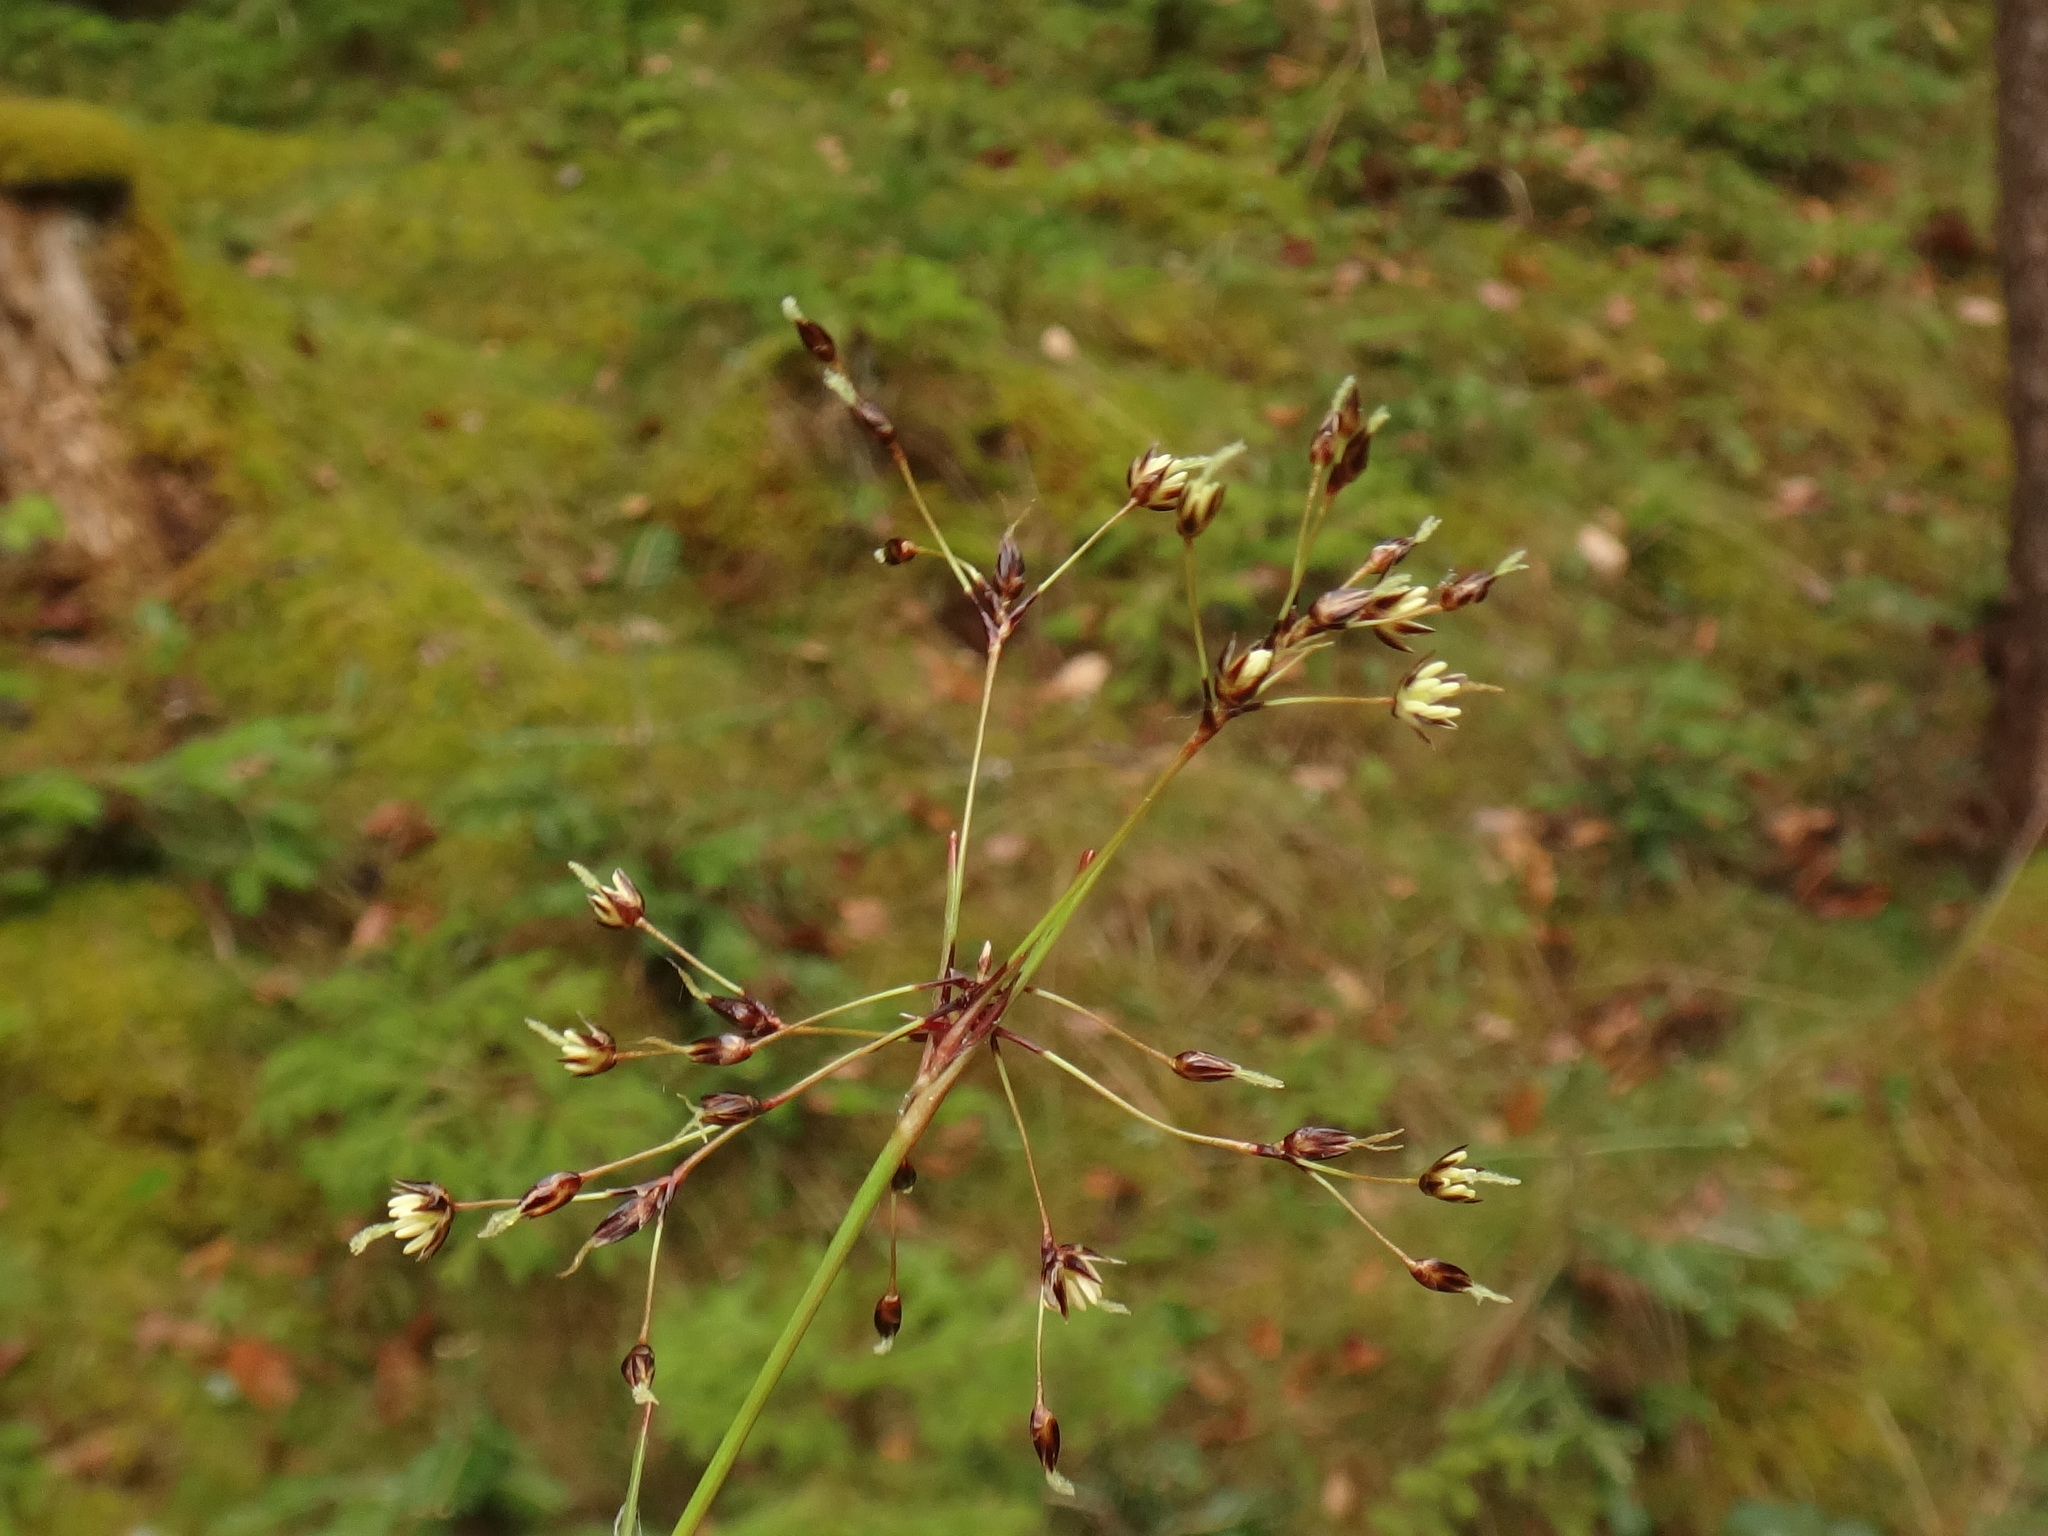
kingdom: Plantae
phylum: Tracheophyta
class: Liliopsida
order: Poales
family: Juncaceae
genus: Luzula
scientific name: Luzula pilosa
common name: Hairy wood-rush
